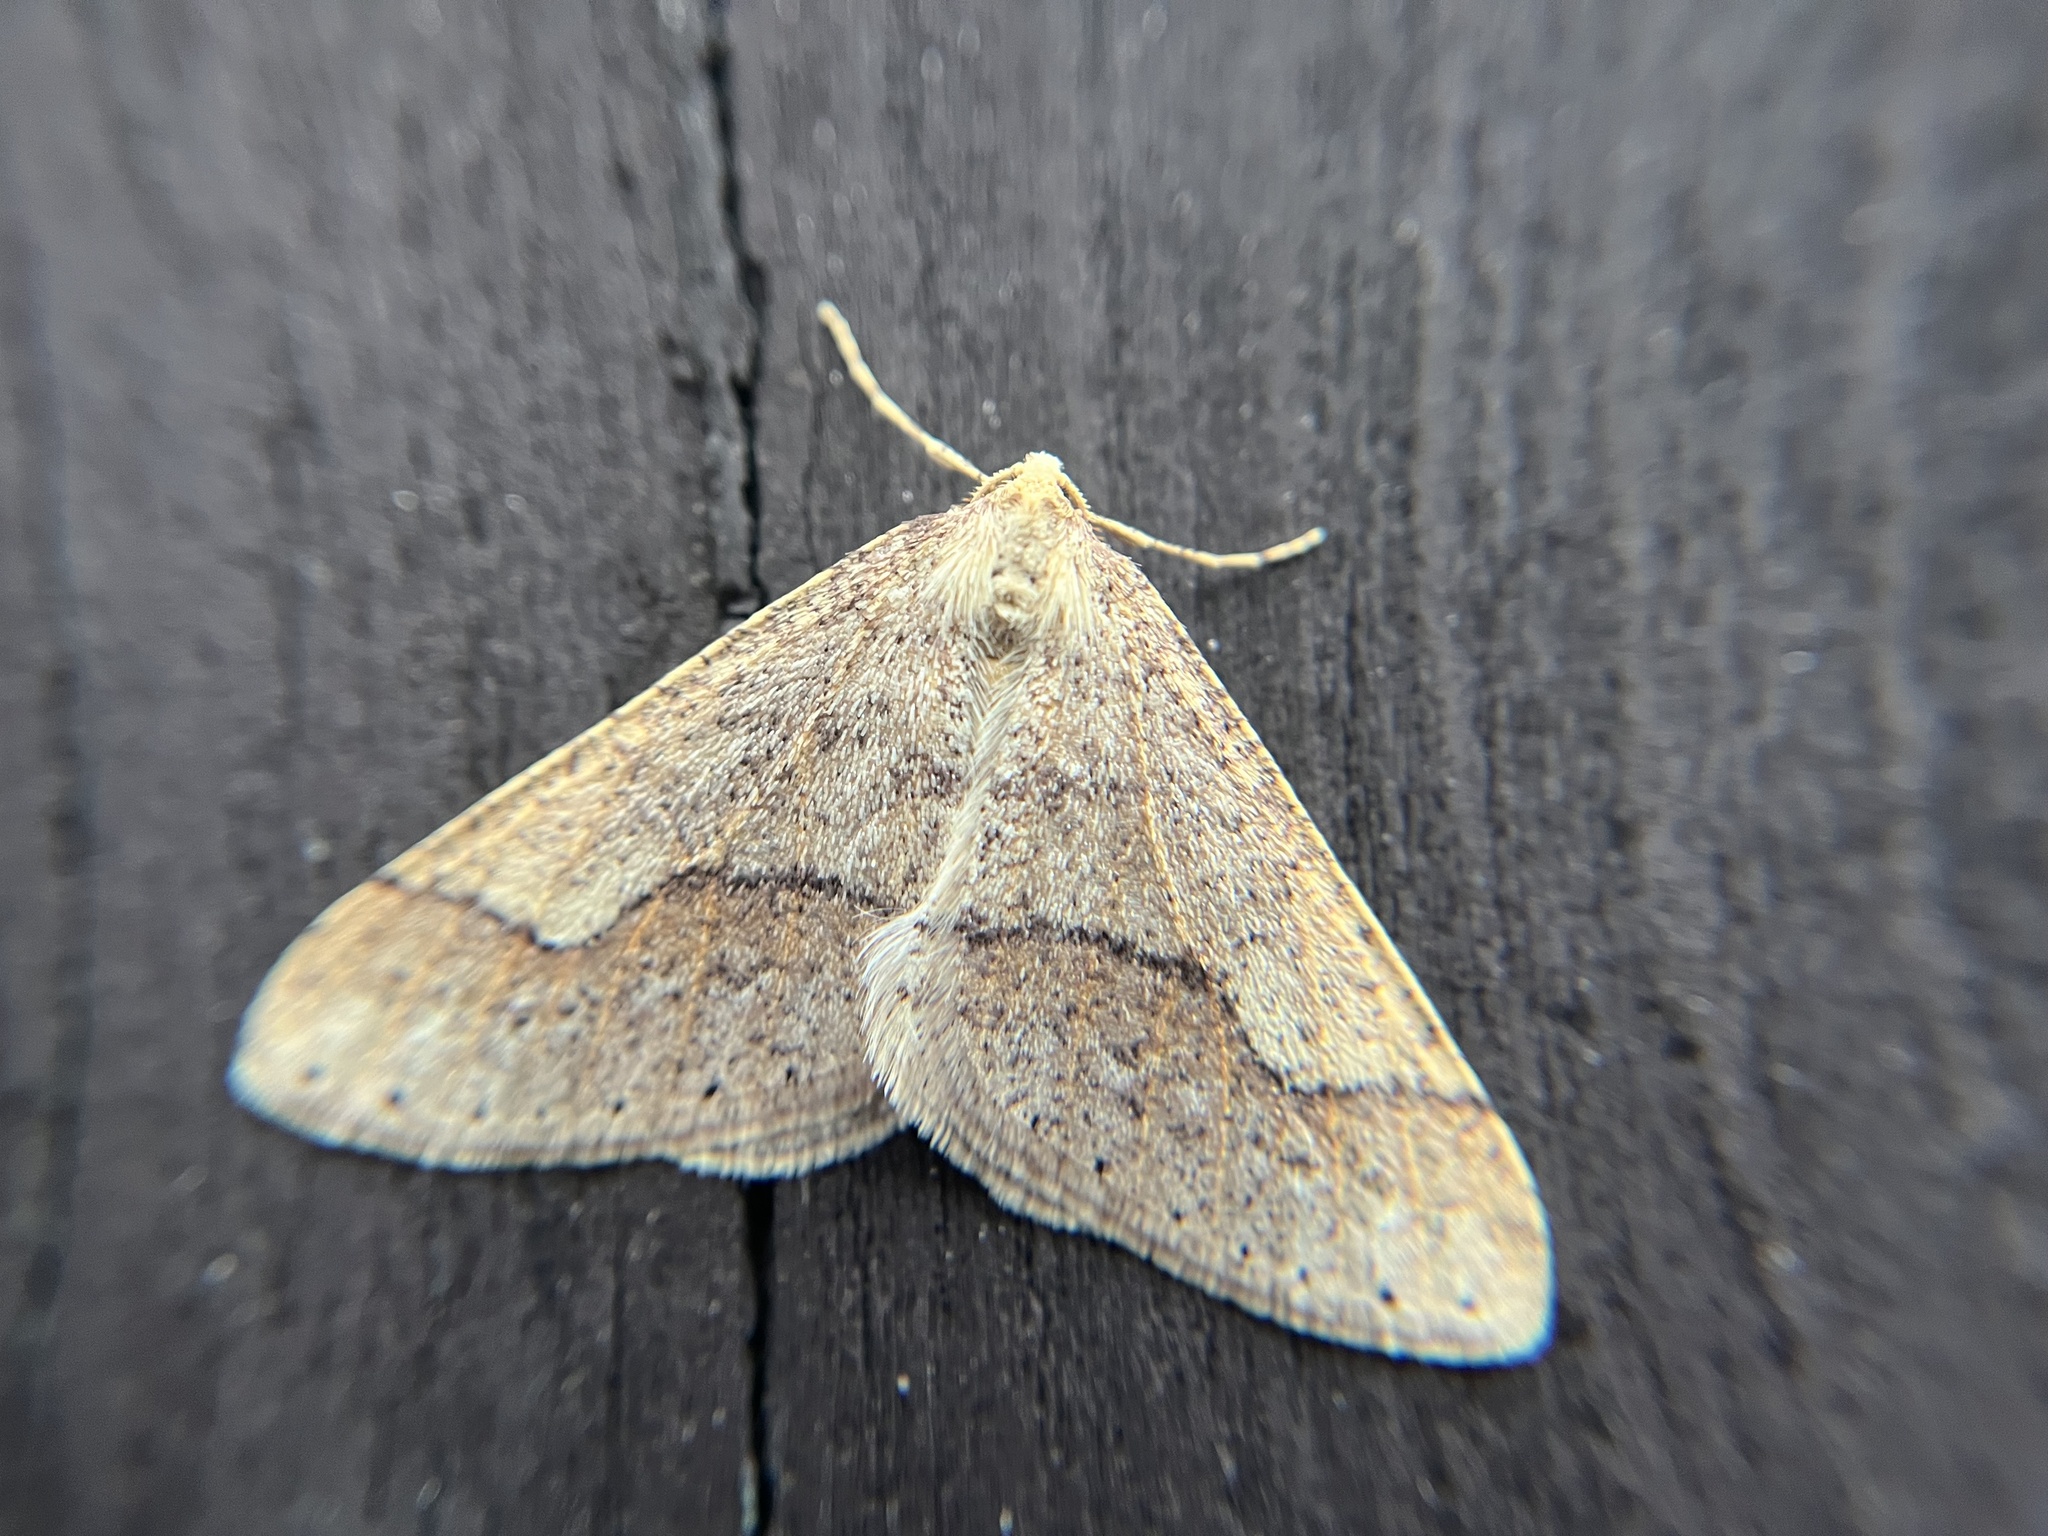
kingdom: Animalia
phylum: Arthropoda
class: Insecta
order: Lepidoptera
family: Geometridae
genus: Agriopis
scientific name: Agriopis marginaria
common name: Dotted border
